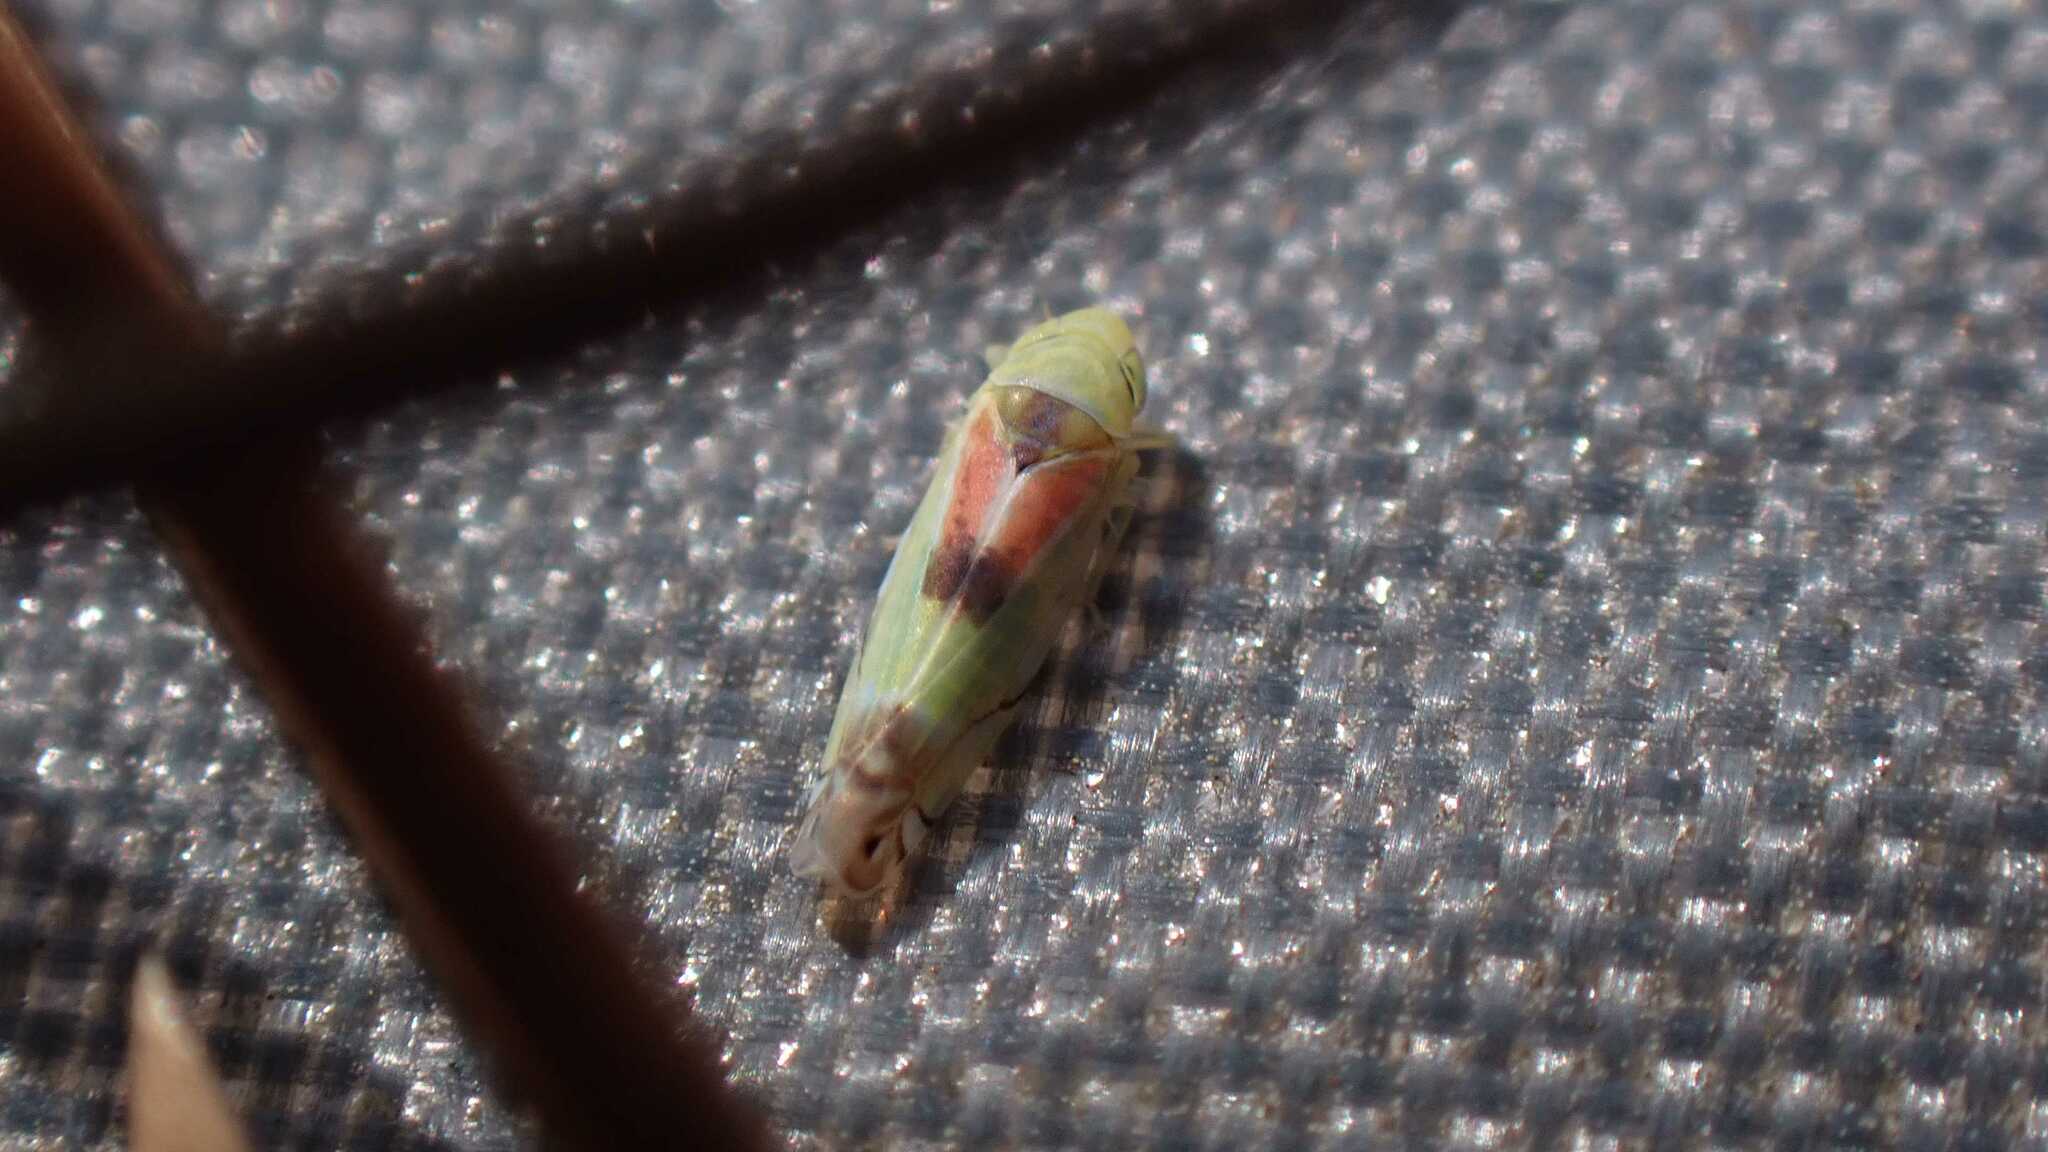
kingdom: Animalia
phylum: Arthropoda
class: Insecta
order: Hemiptera
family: Cicadellidae
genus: Zyginella
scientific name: Zyginella pulchra
